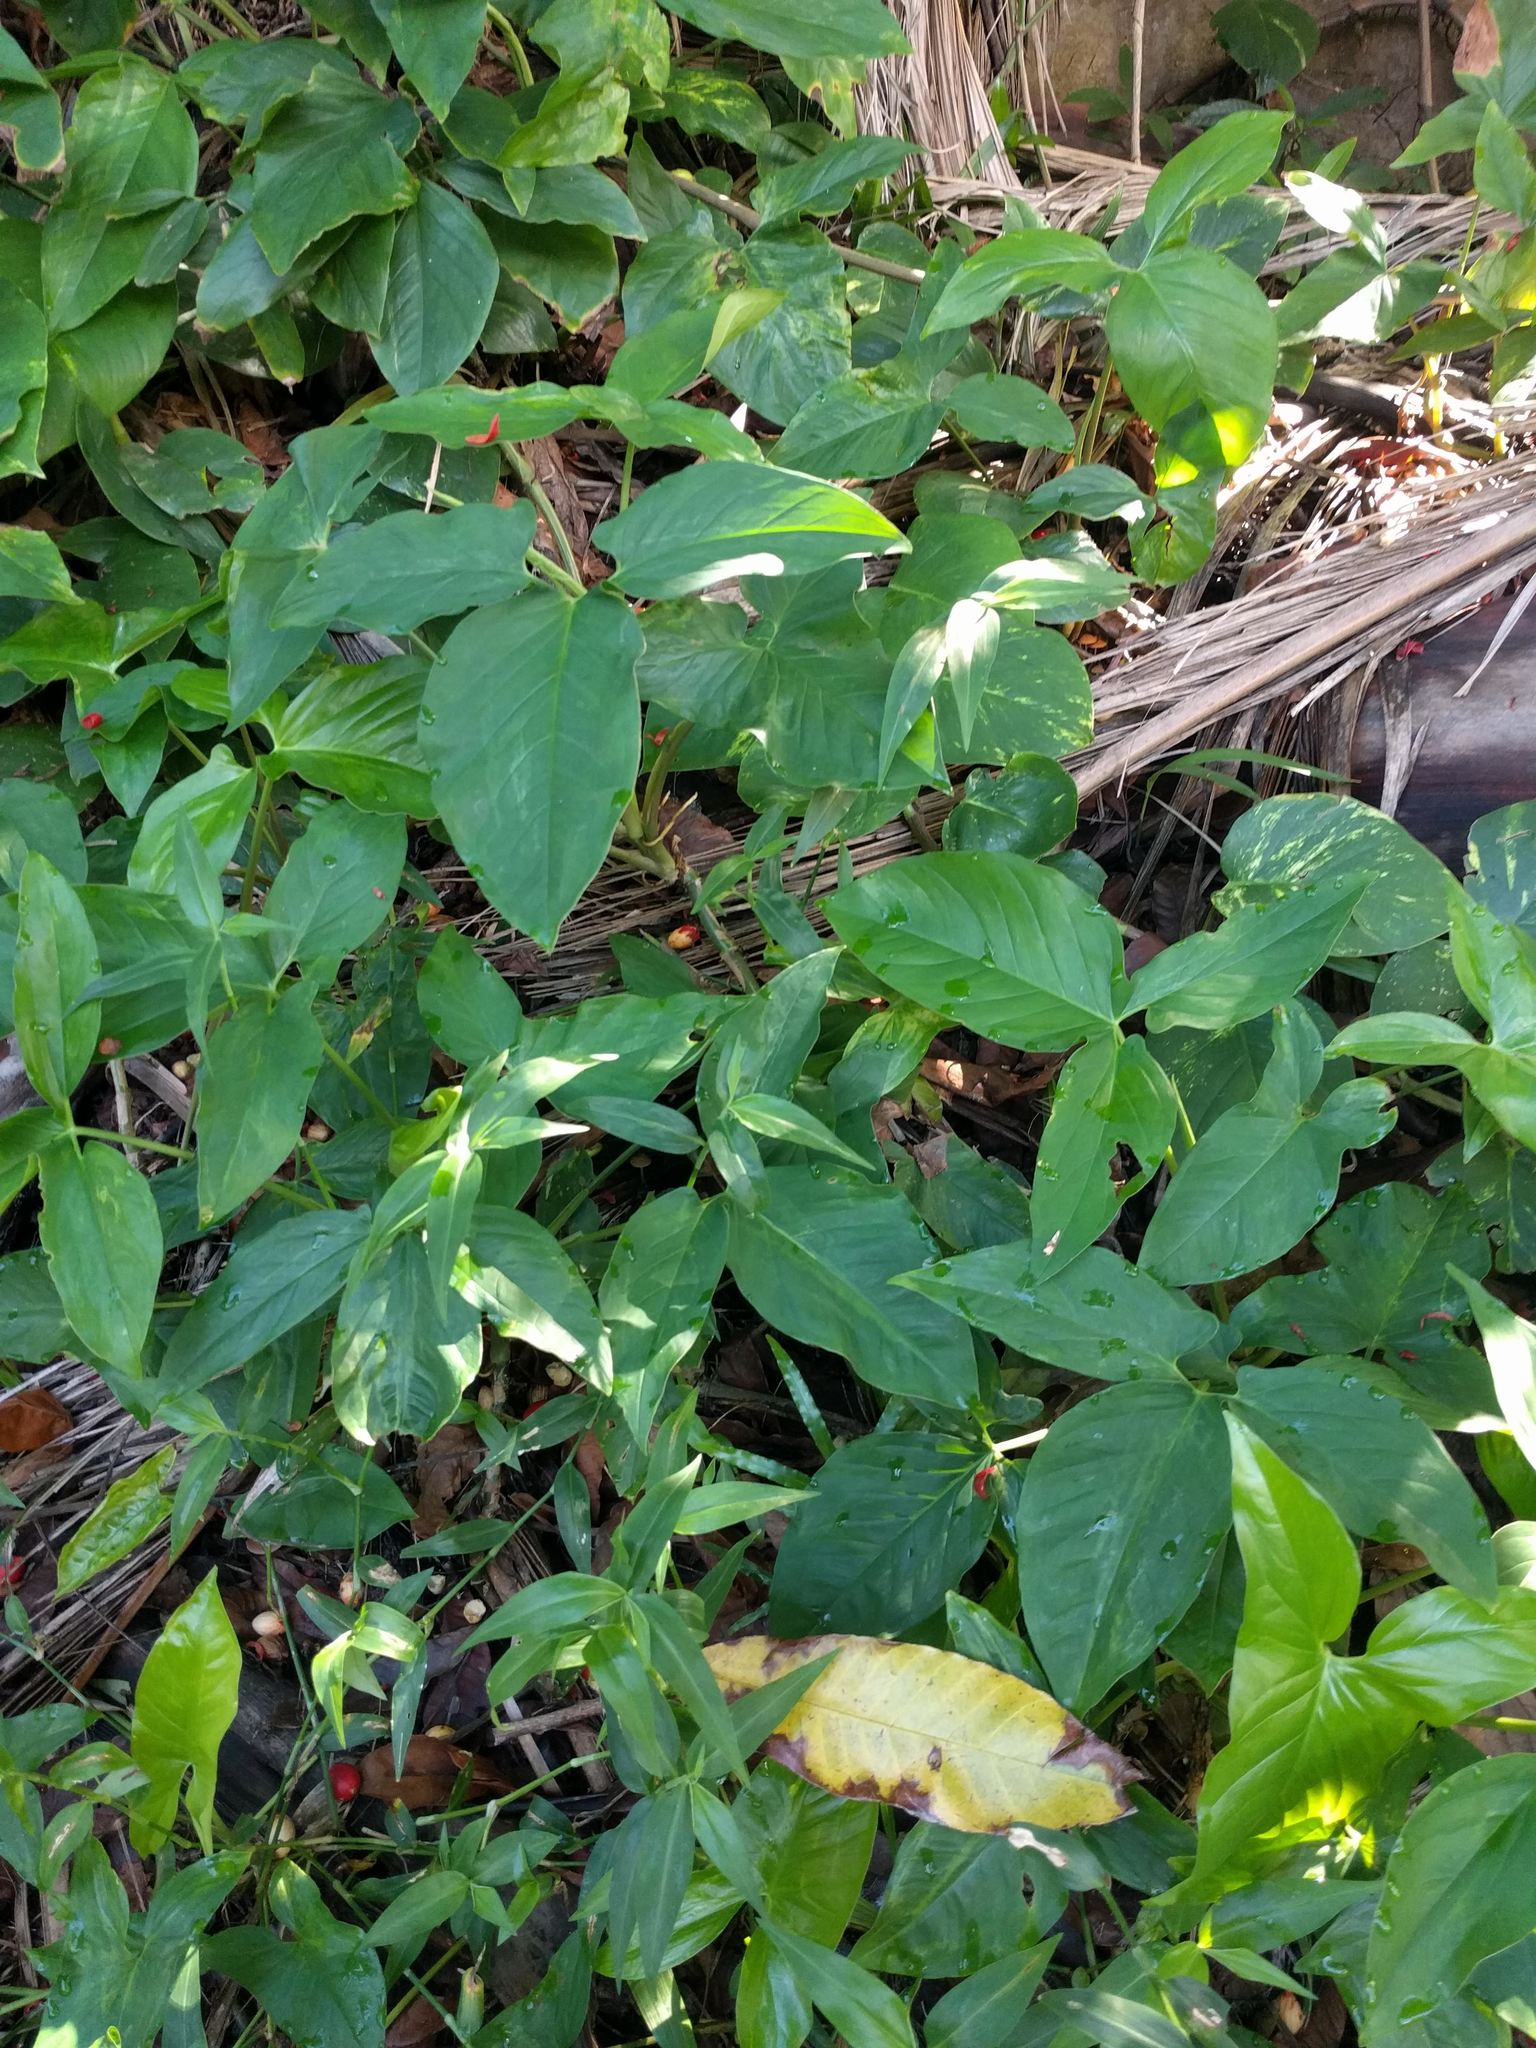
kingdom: Plantae
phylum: Tracheophyta
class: Liliopsida
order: Alismatales
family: Araceae
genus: Syngonium
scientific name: Syngonium podophyllum
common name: American evergreen
